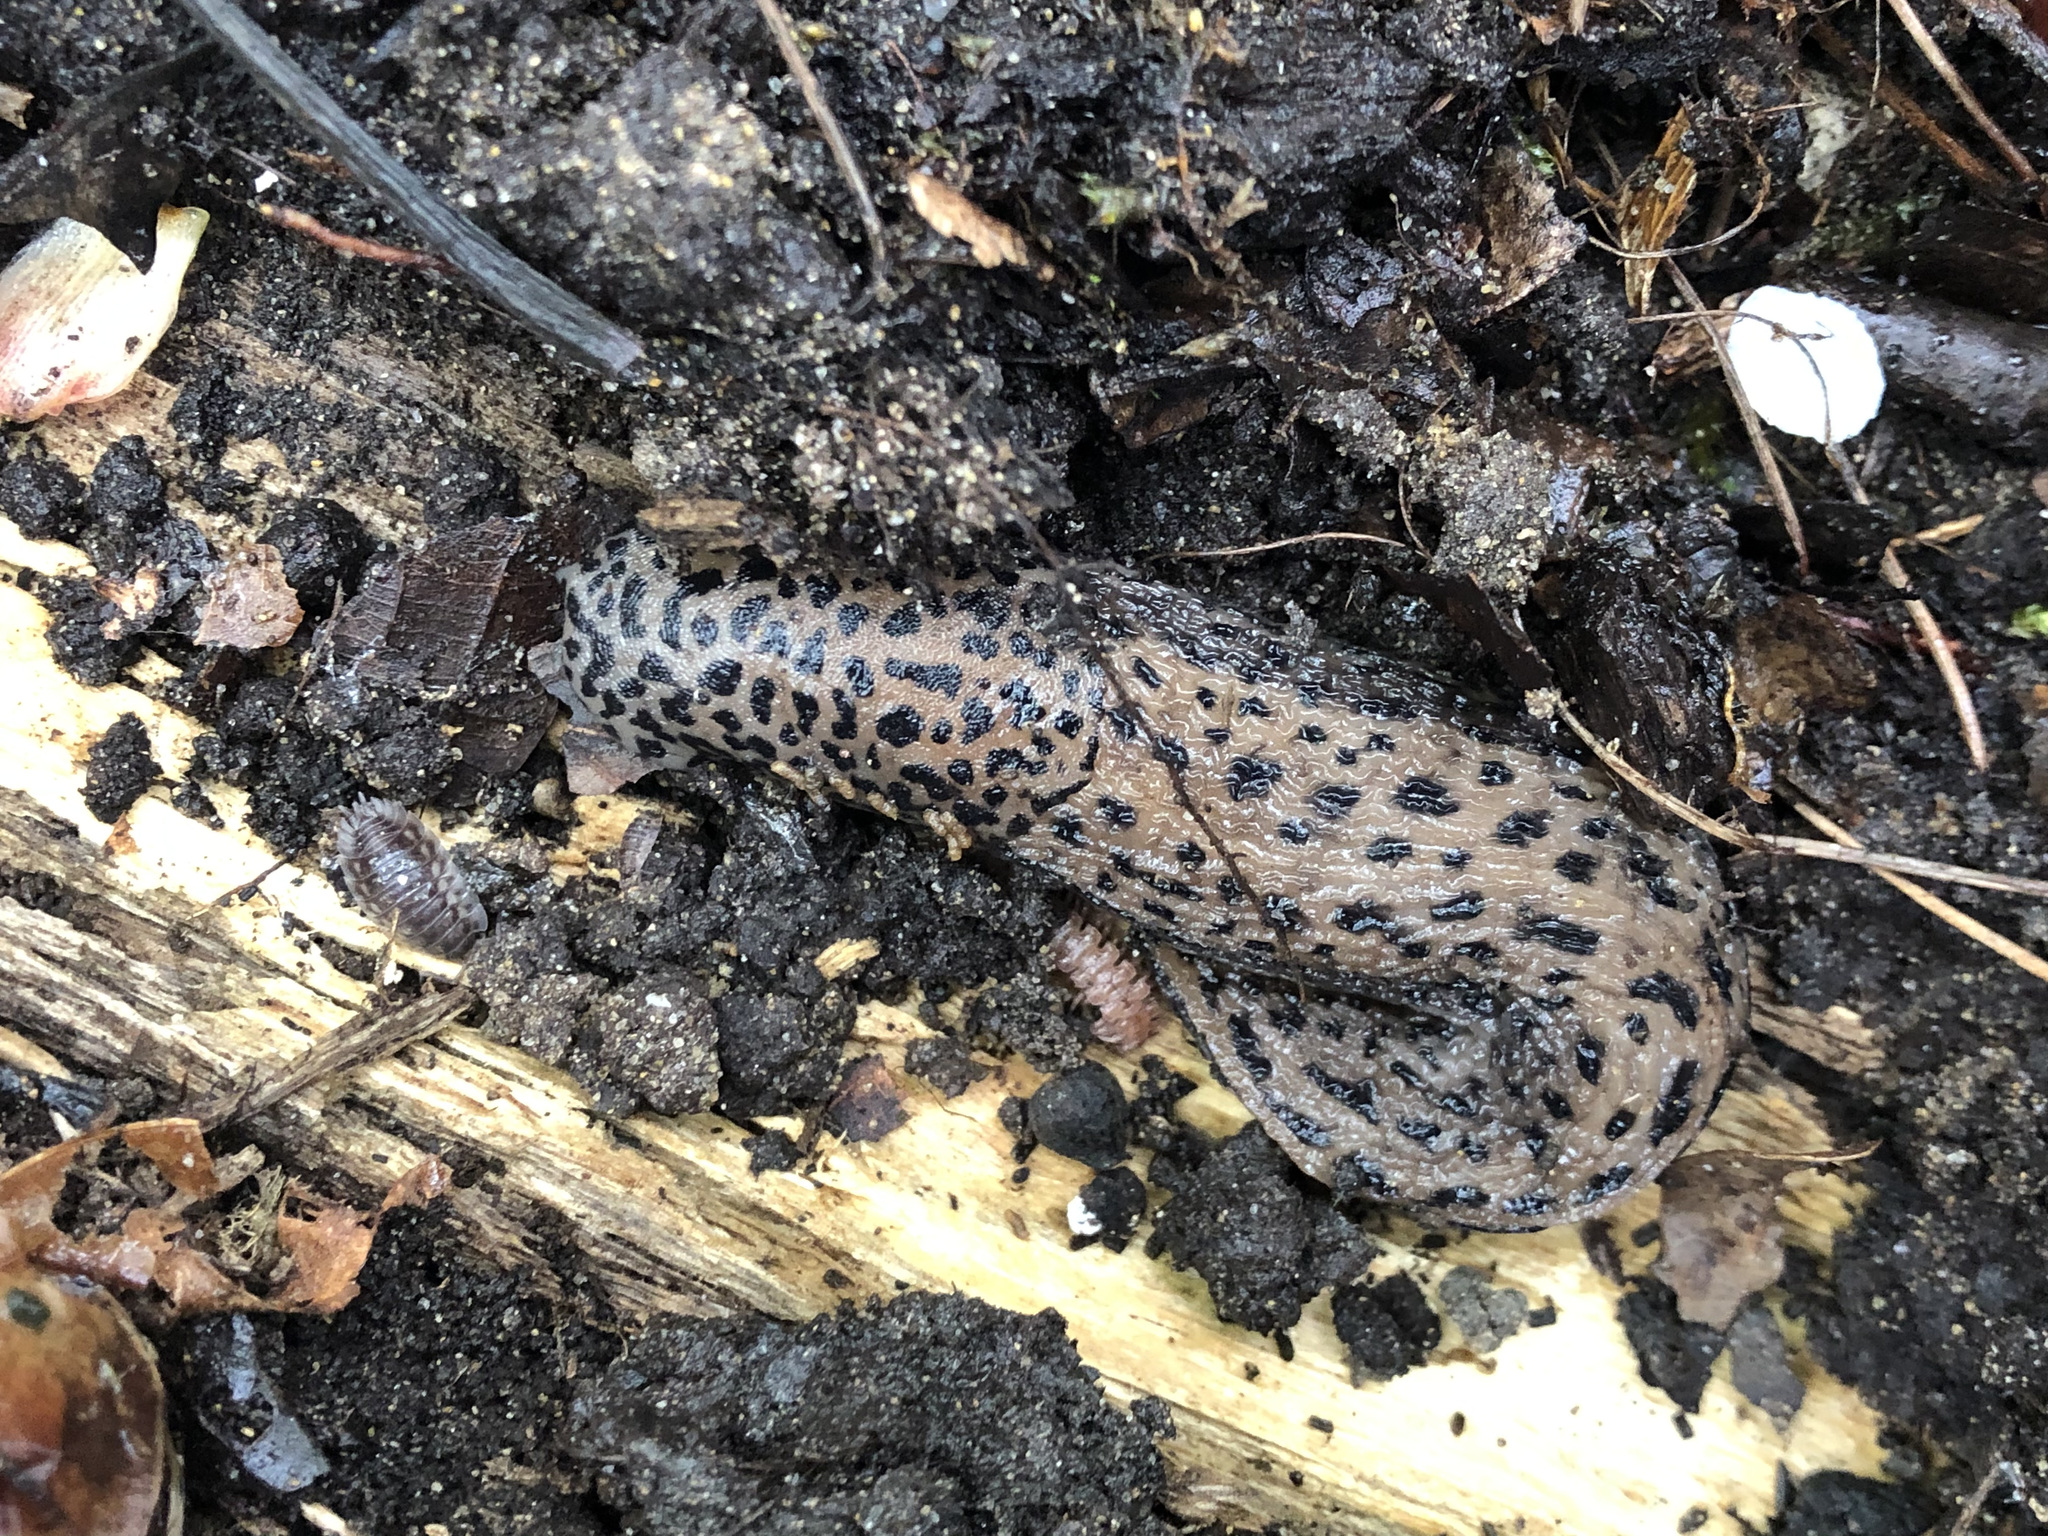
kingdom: Animalia
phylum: Mollusca
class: Gastropoda
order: Stylommatophora
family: Limacidae
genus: Limax
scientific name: Limax maximus
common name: Great grey slug
